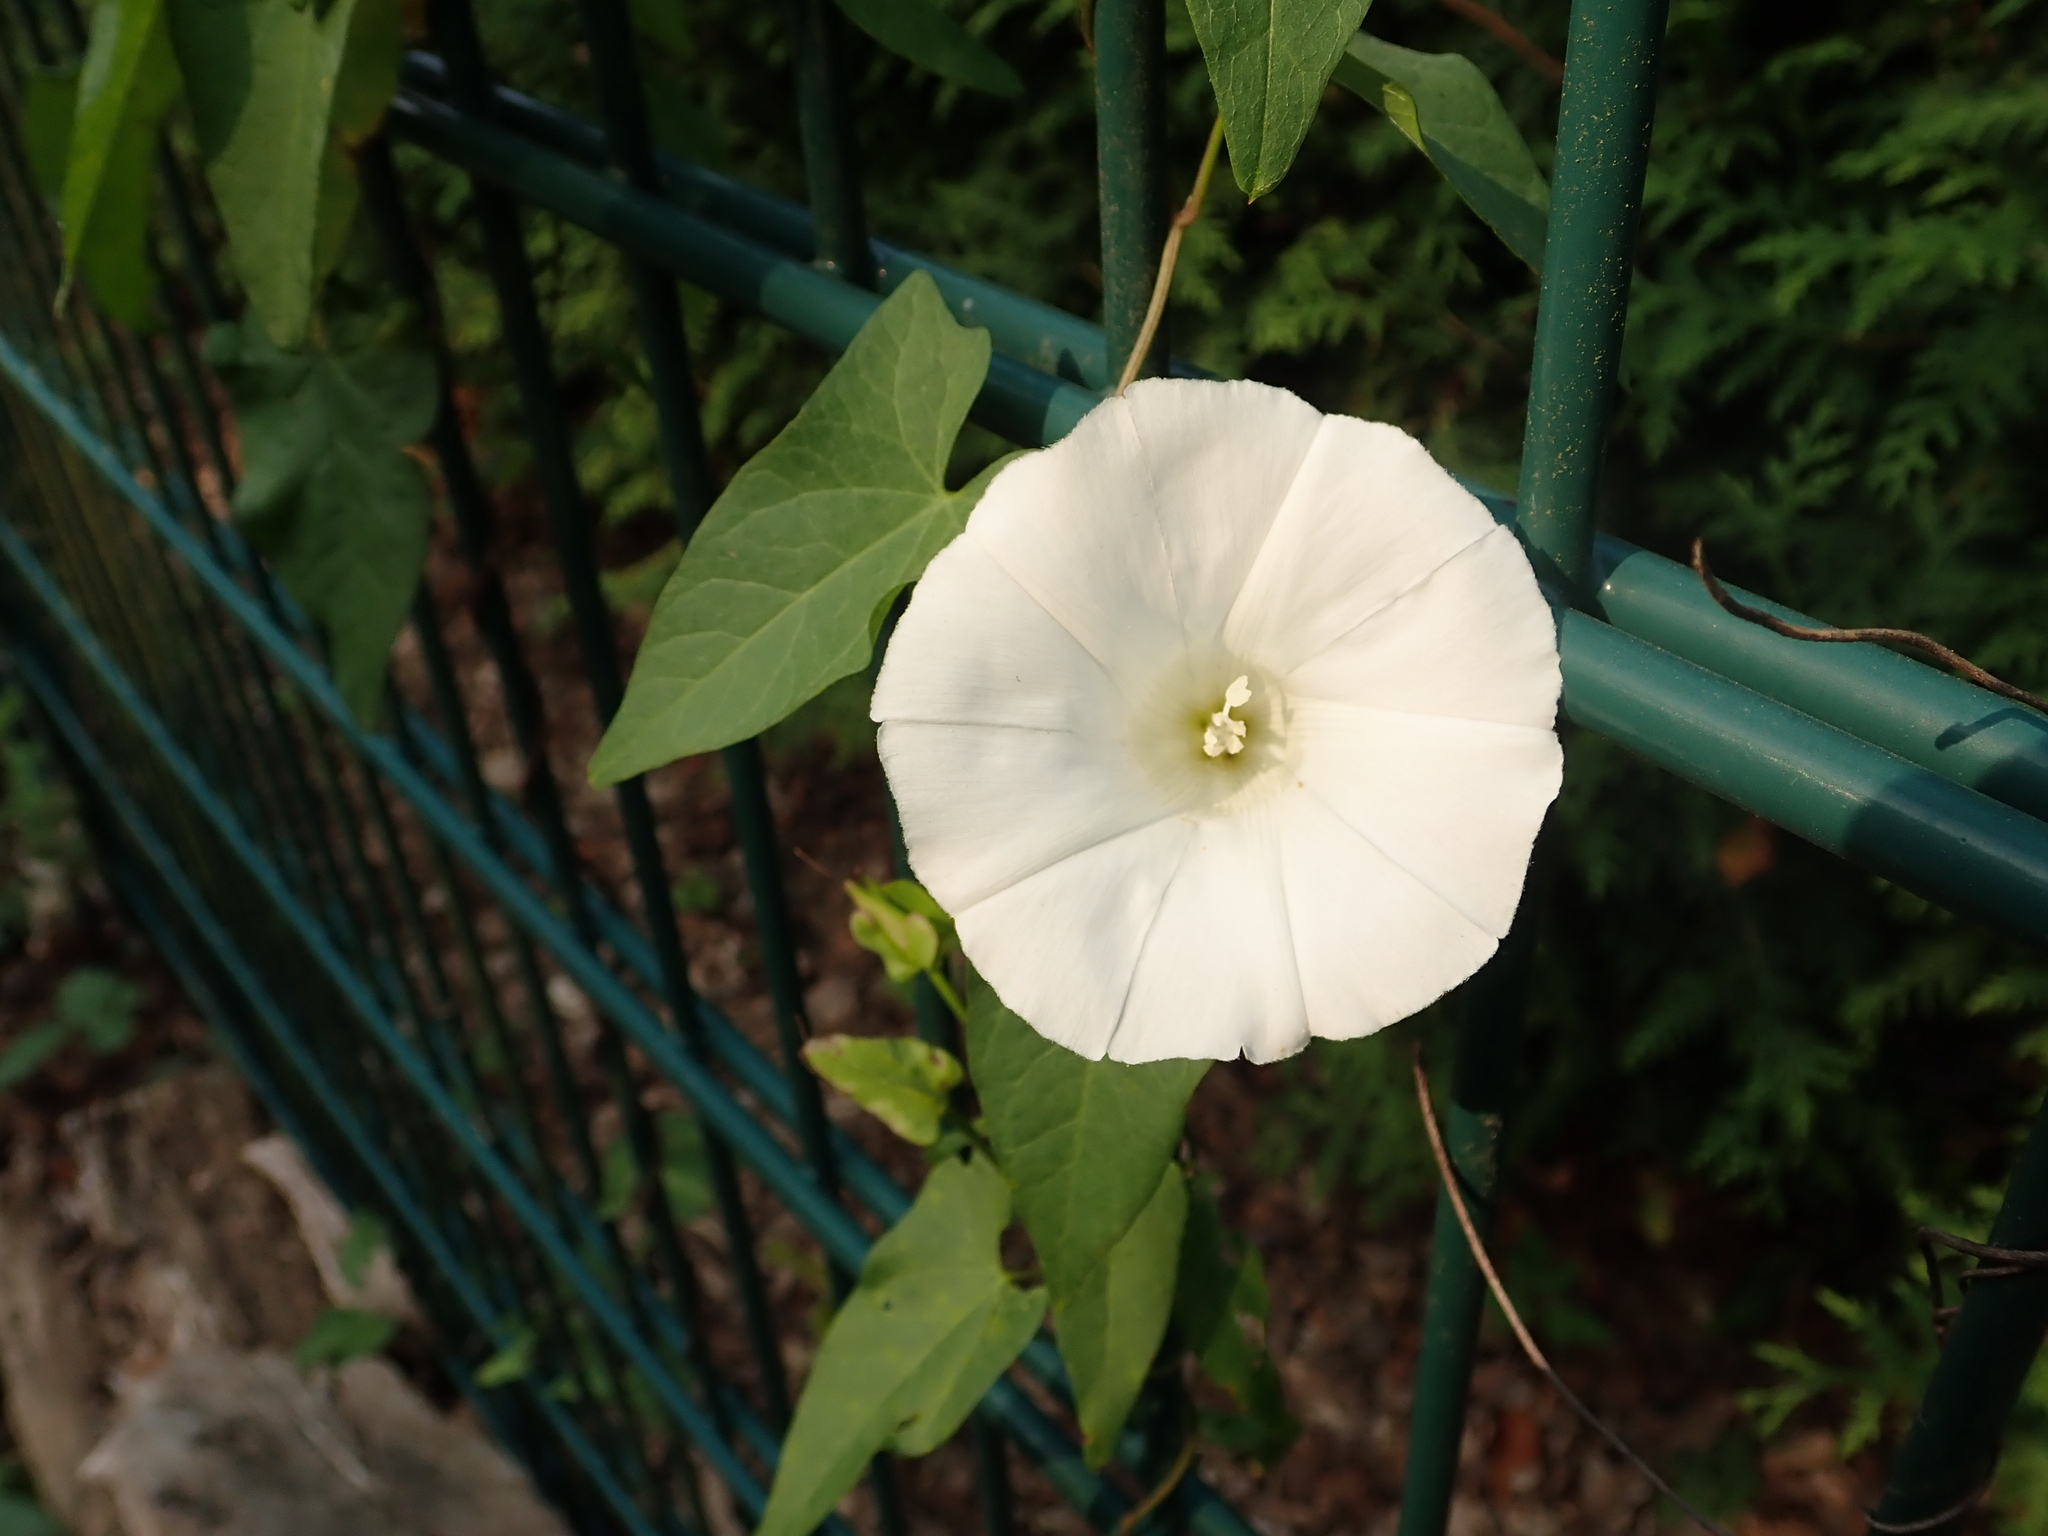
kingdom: Plantae
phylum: Tracheophyta
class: Magnoliopsida
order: Solanales
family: Convolvulaceae
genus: Calystegia
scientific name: Calystegia sepium
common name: Hedge bindweed
